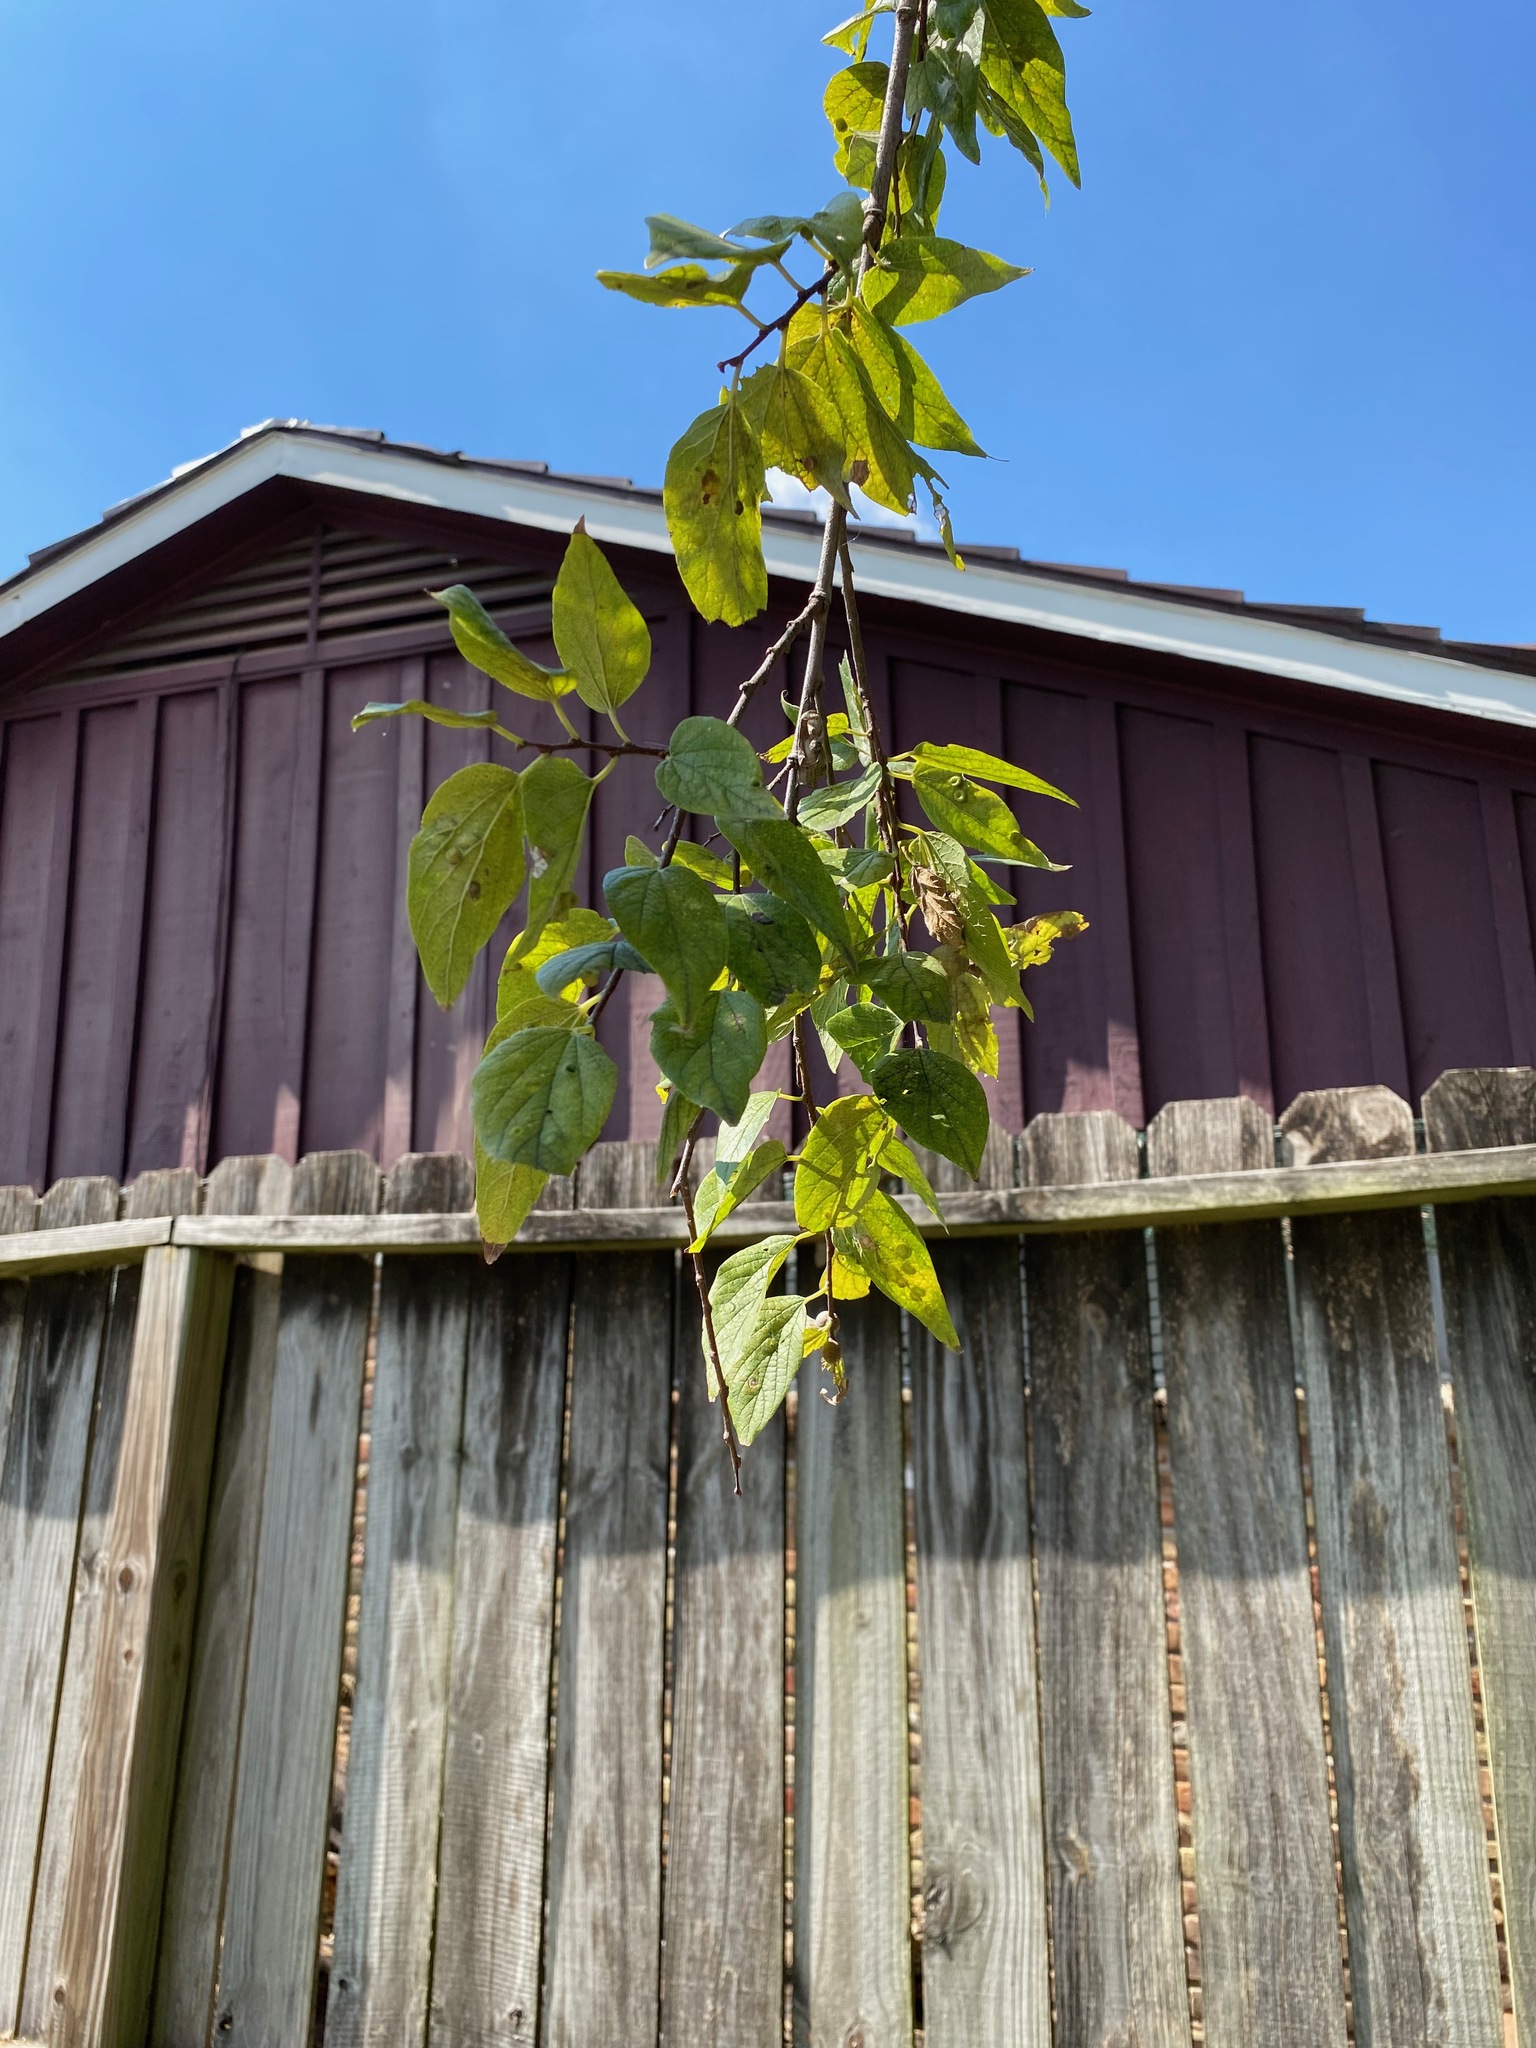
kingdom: Plantae
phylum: Tracheophyta
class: Magnoliopsida
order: Rosales
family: Cannabaceae
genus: Celtis
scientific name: Celtis laevigata
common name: Sugarberry
